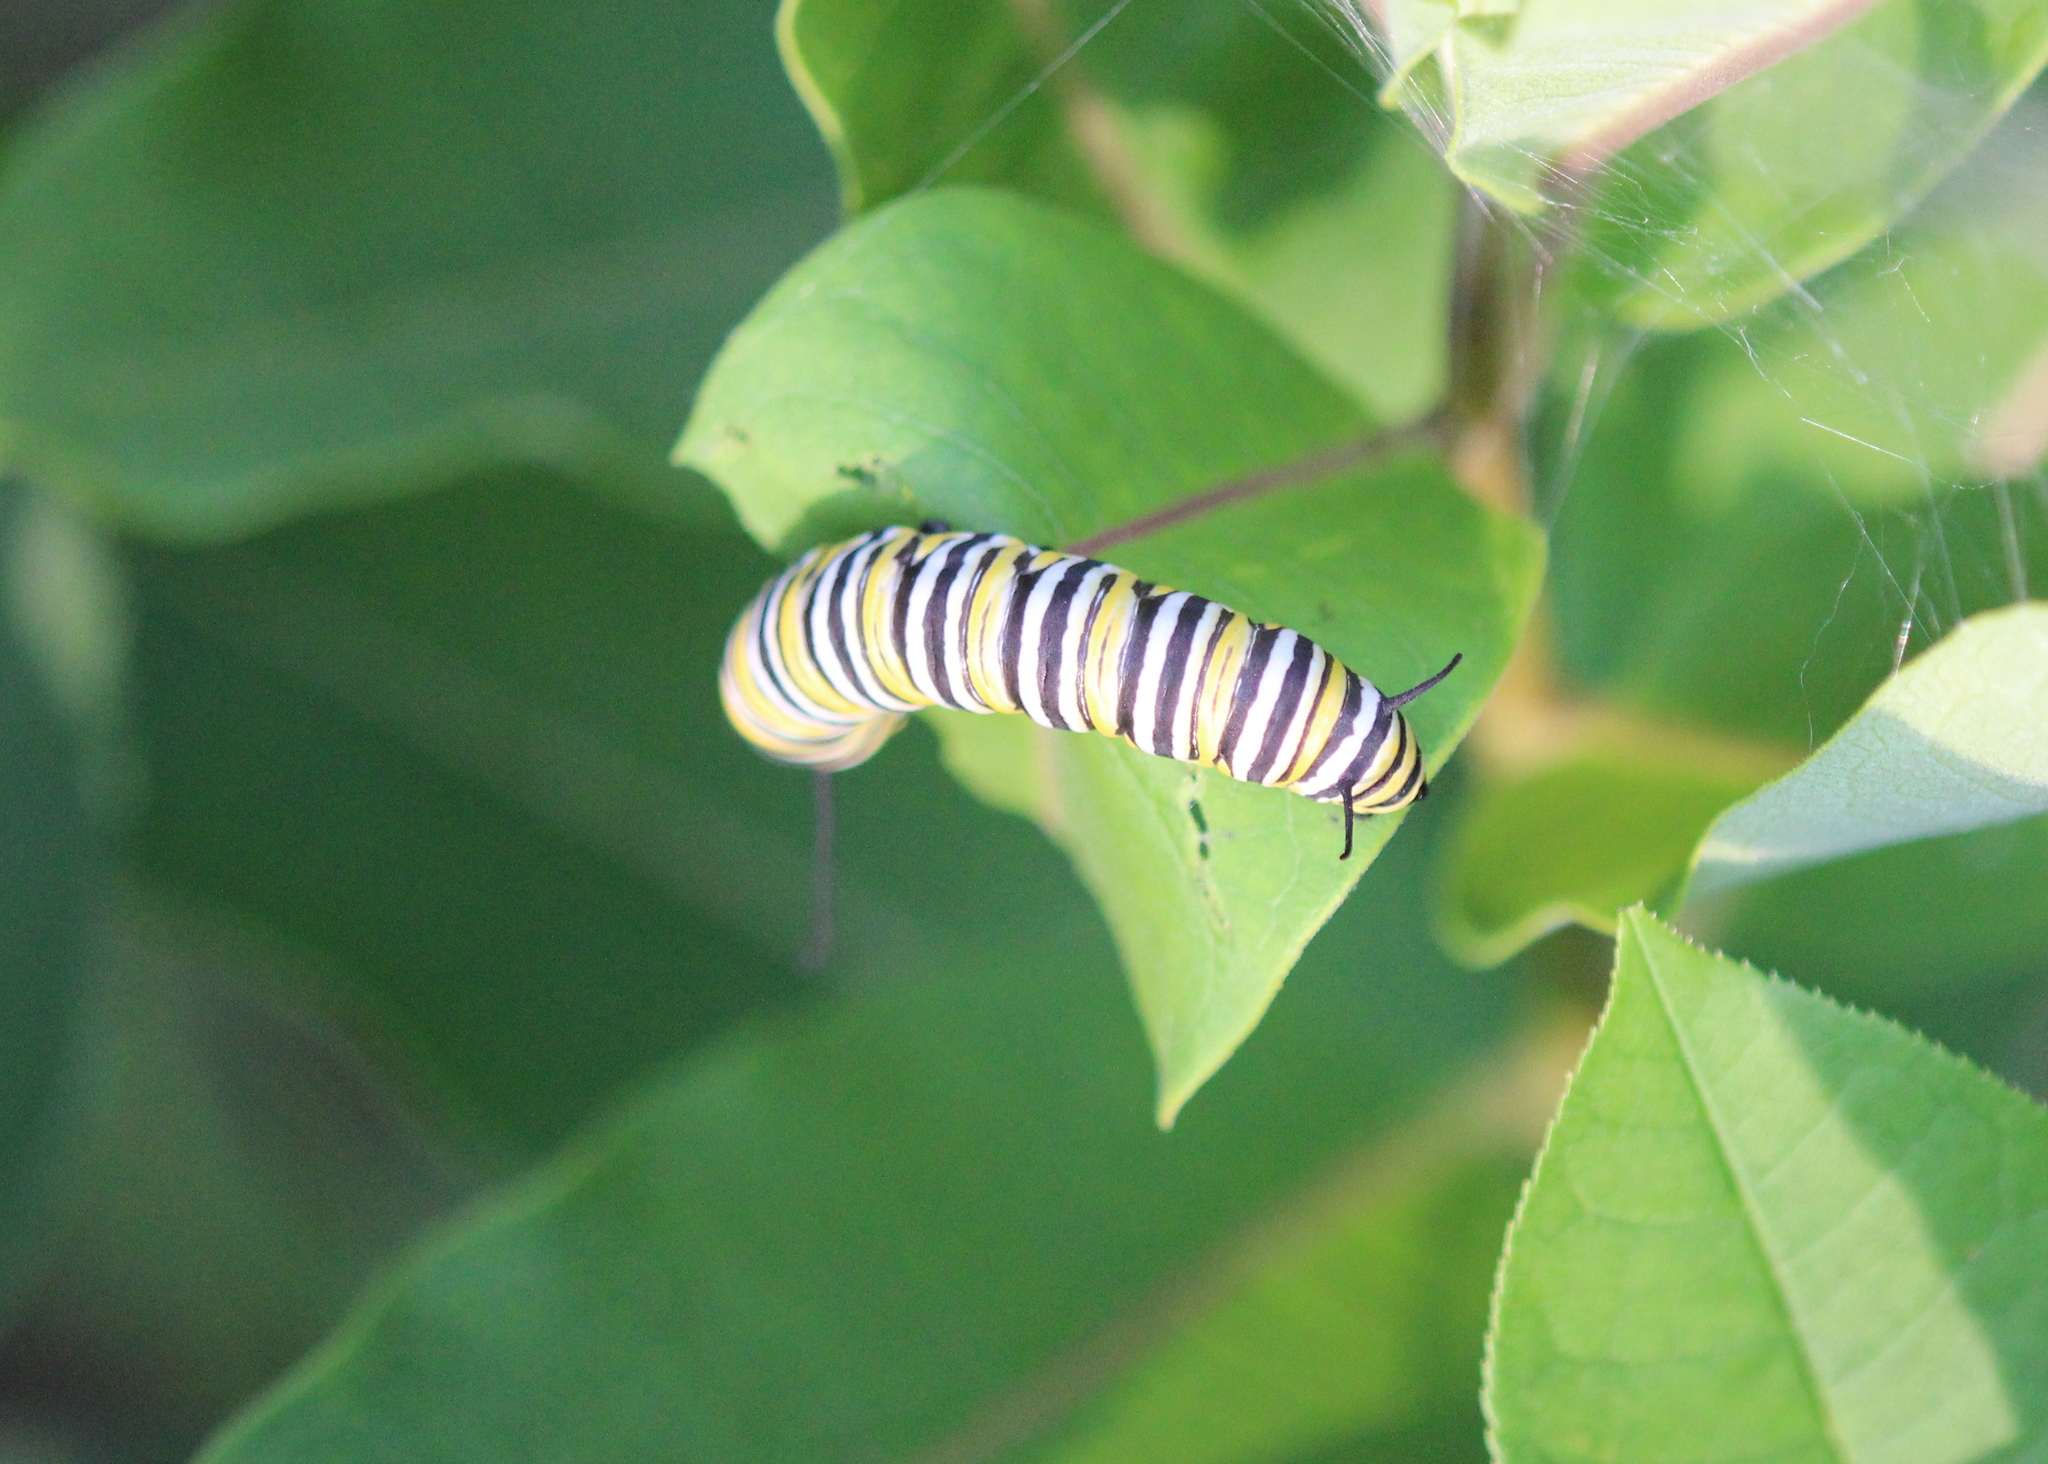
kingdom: Animalia
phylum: Arthropoda
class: Insecta
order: Lepidoptera
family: Nymphalidae
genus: Danaus
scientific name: Danaus plexippus
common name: Monarch
